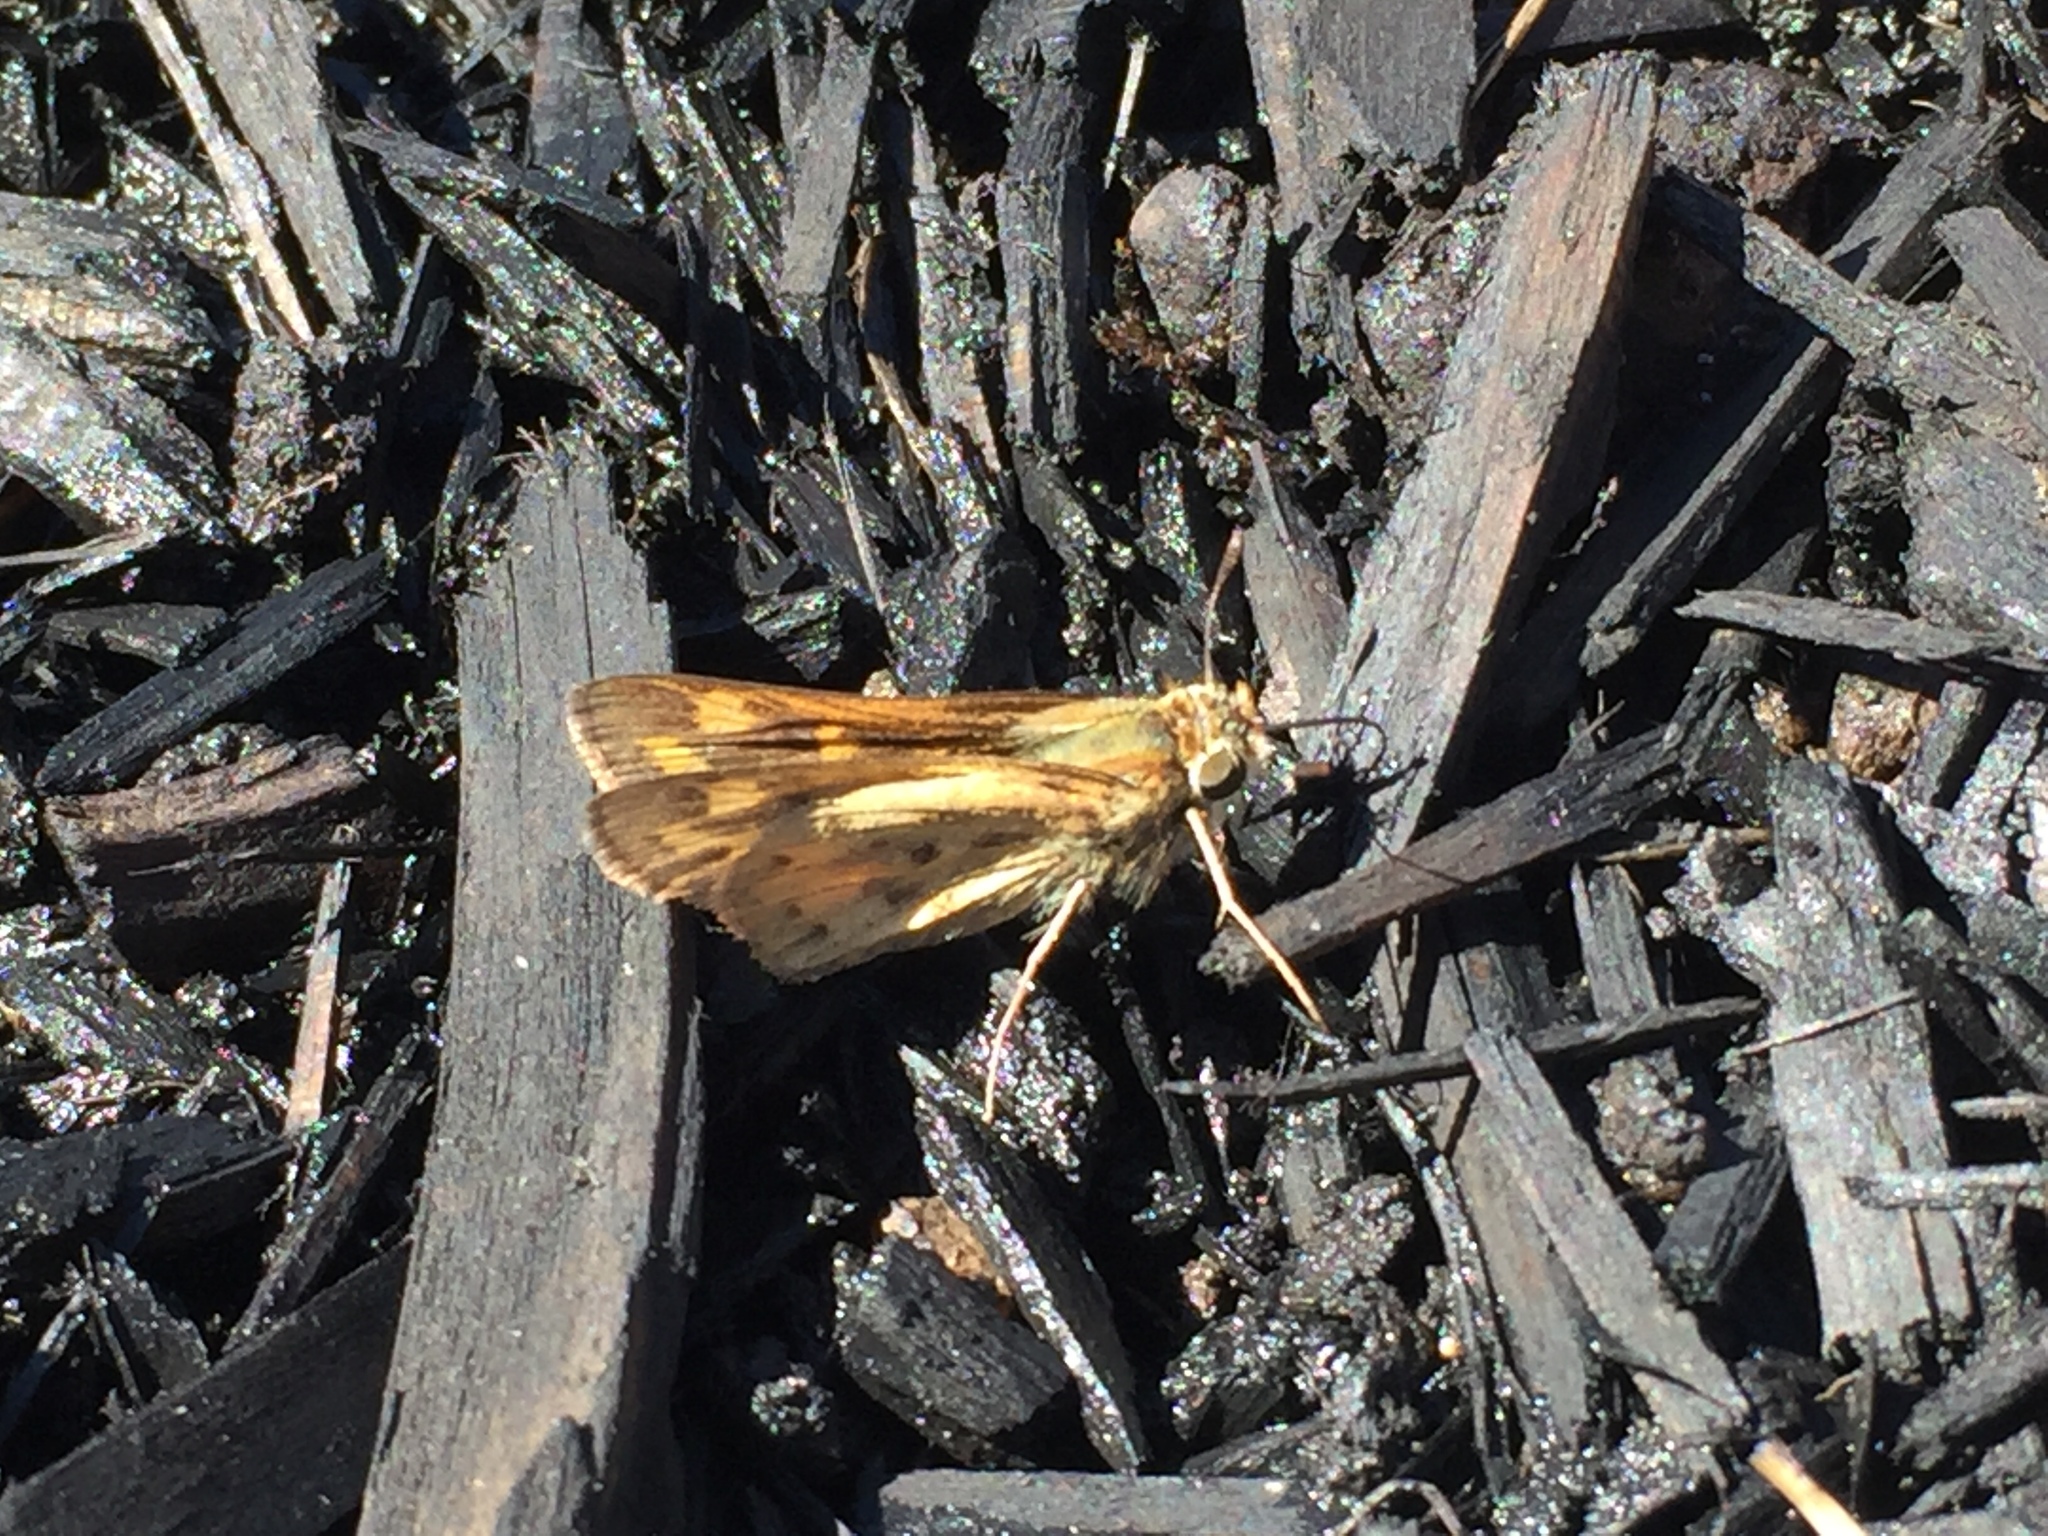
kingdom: Animalia
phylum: Arthropoda
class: Insecta
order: Lepidoptera
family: Hesperiidae
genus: Hylephila
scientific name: Hylephila phyleus
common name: Fiery skipper
